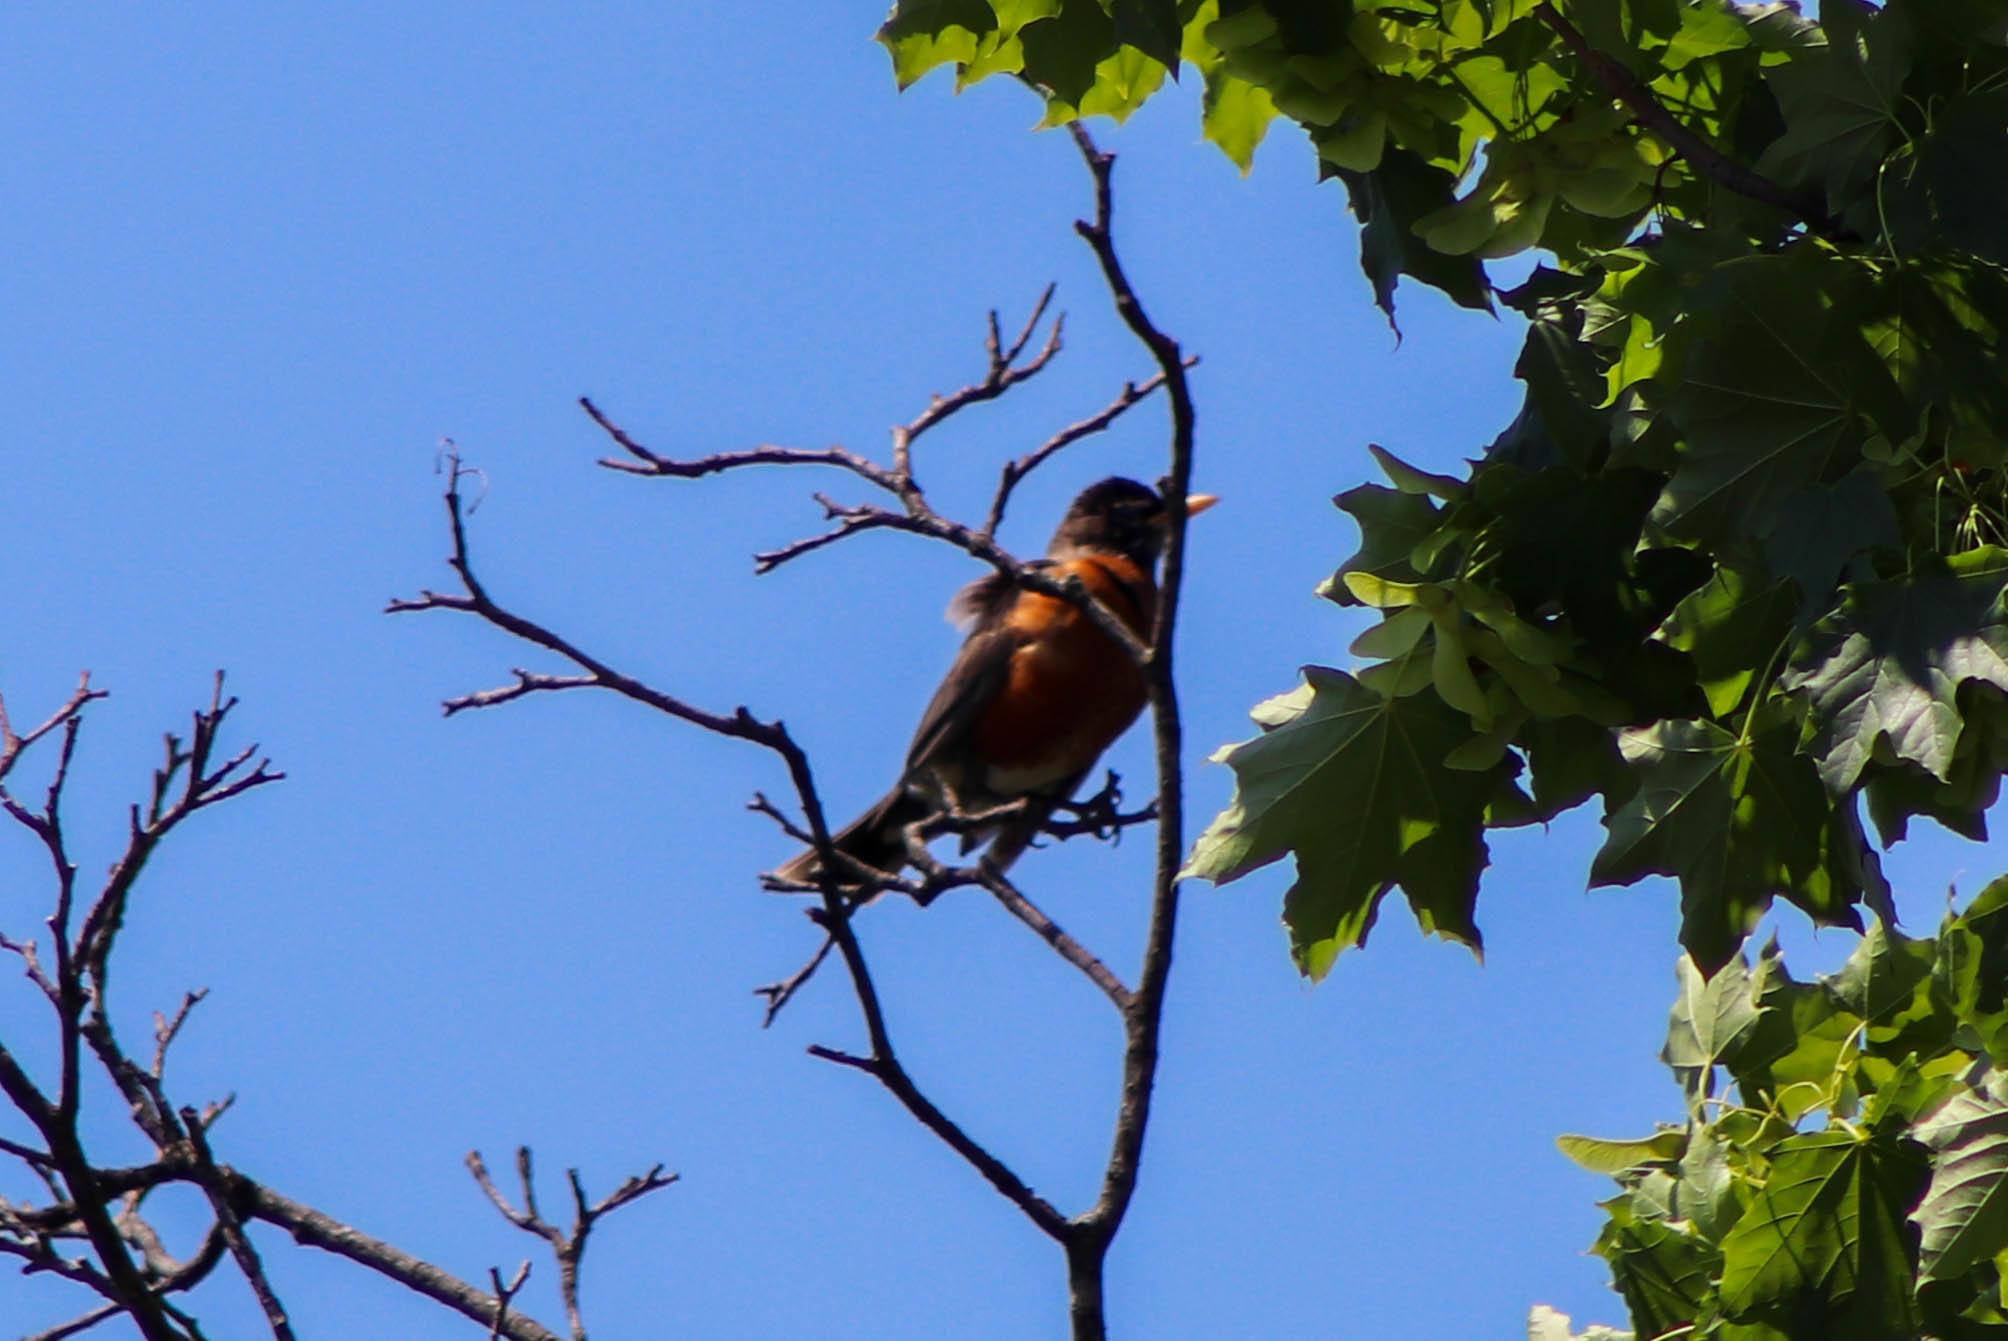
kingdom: Animalia
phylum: Chordata
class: Aves
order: Passeriformes
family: Turdidae
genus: Turdus
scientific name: Turdus migratorius
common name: American robin
